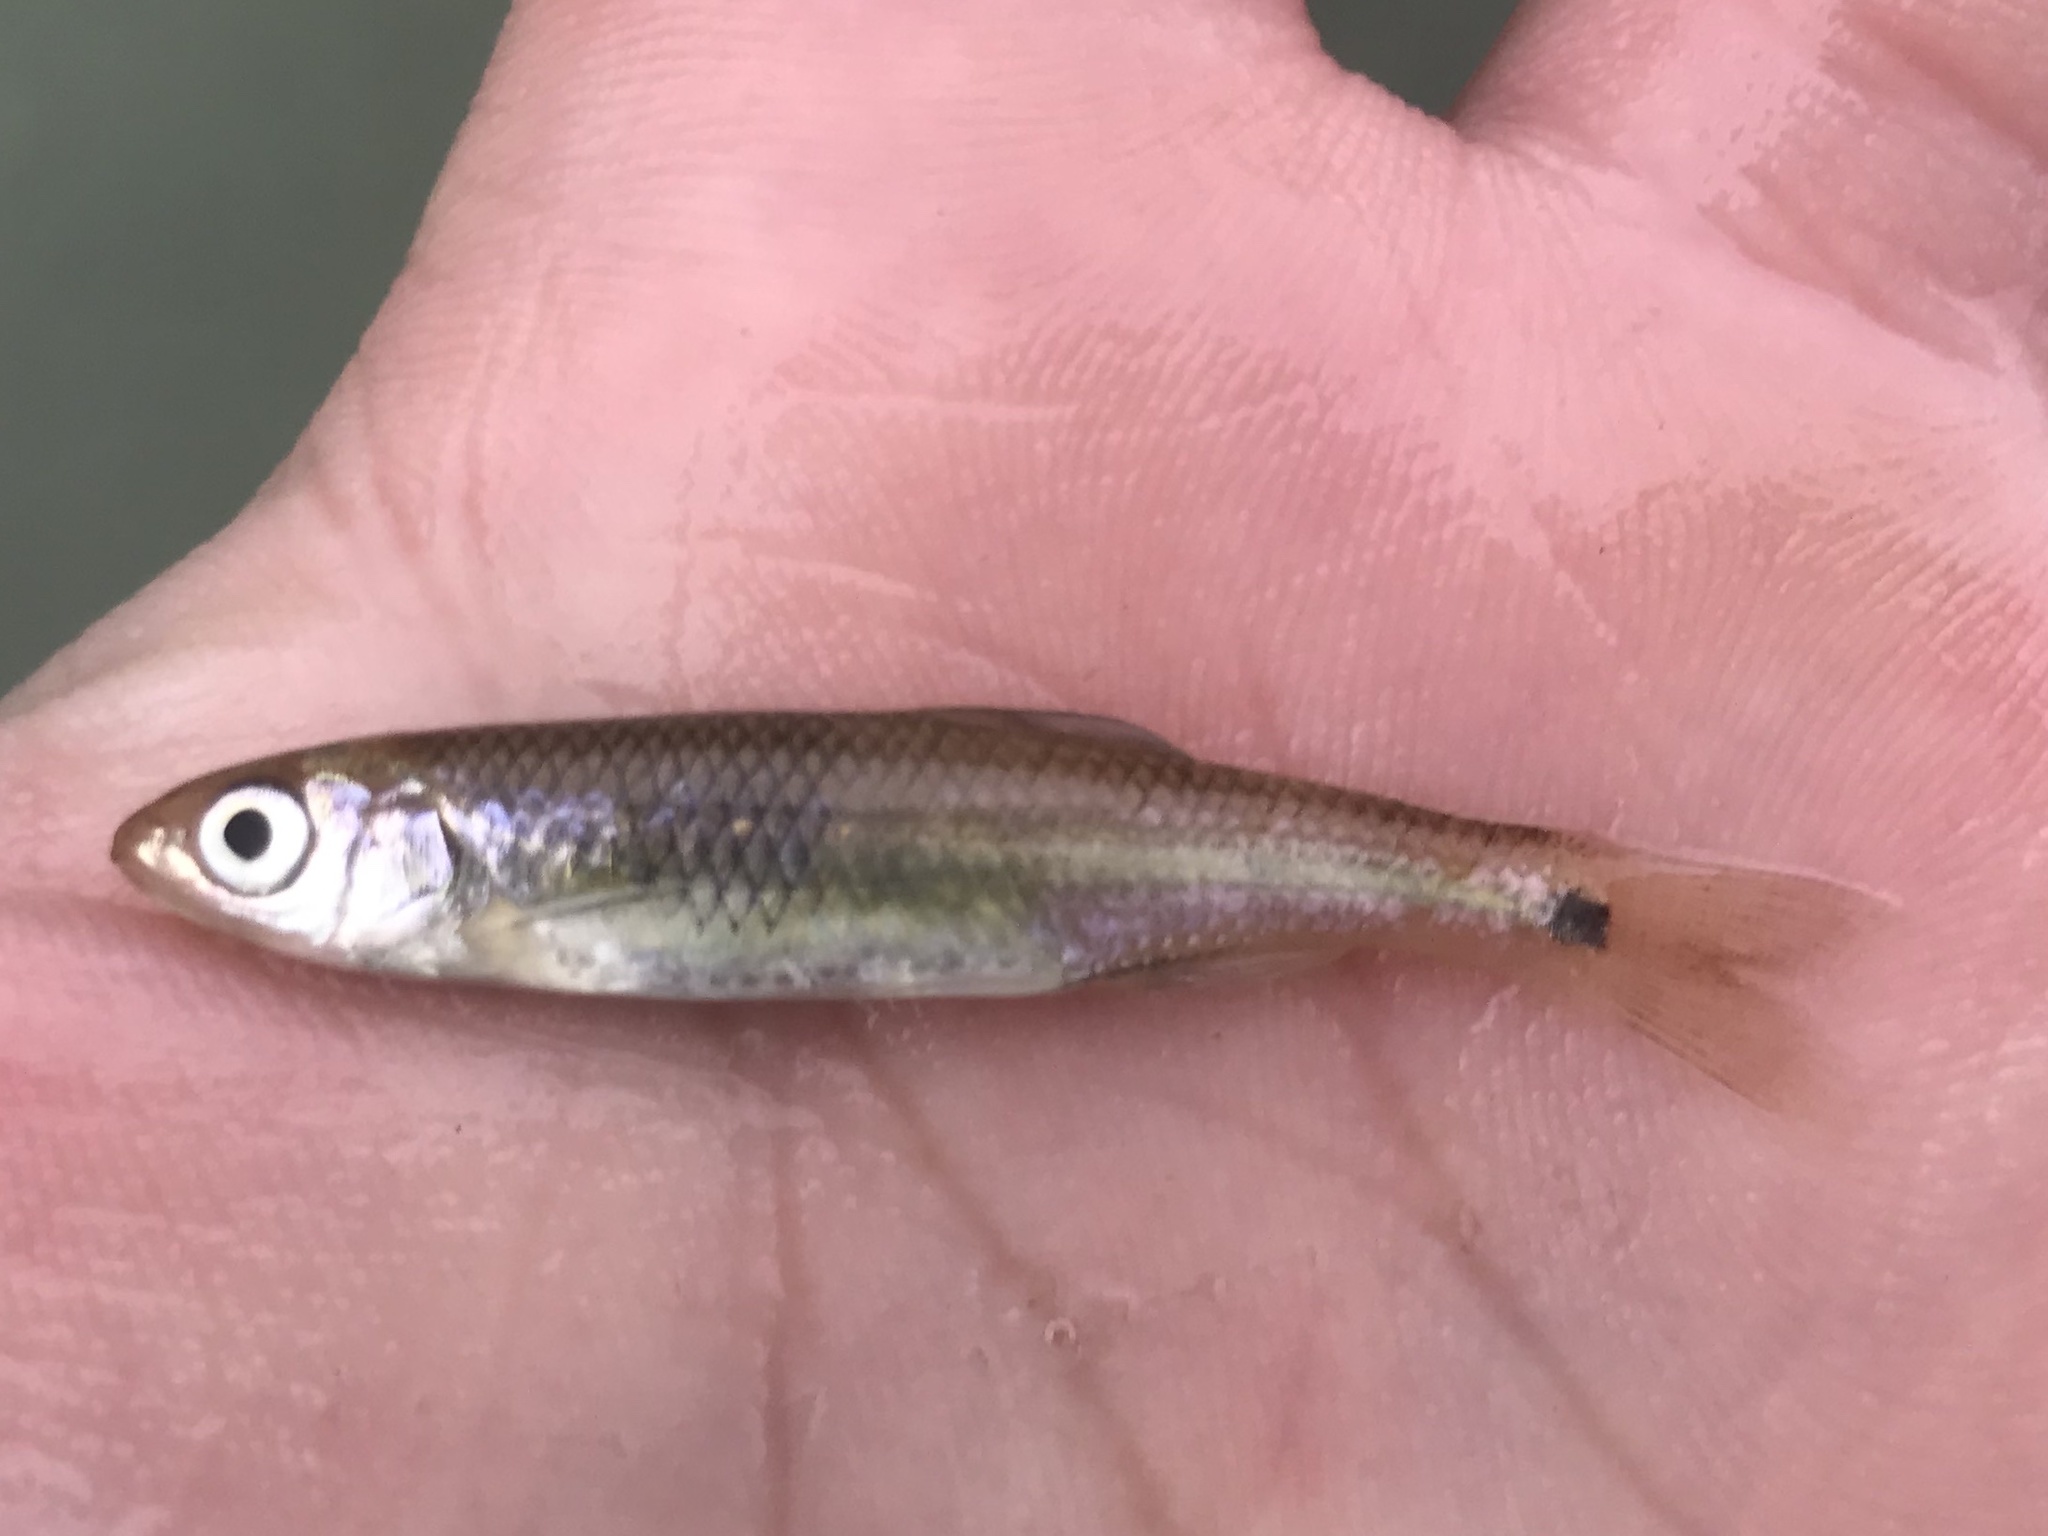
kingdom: Animalia
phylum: Chordata
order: Cypriniformes
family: Cyprinidae
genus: Cyprinella
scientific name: Cyprinella venusta
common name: Blacktail shiner
